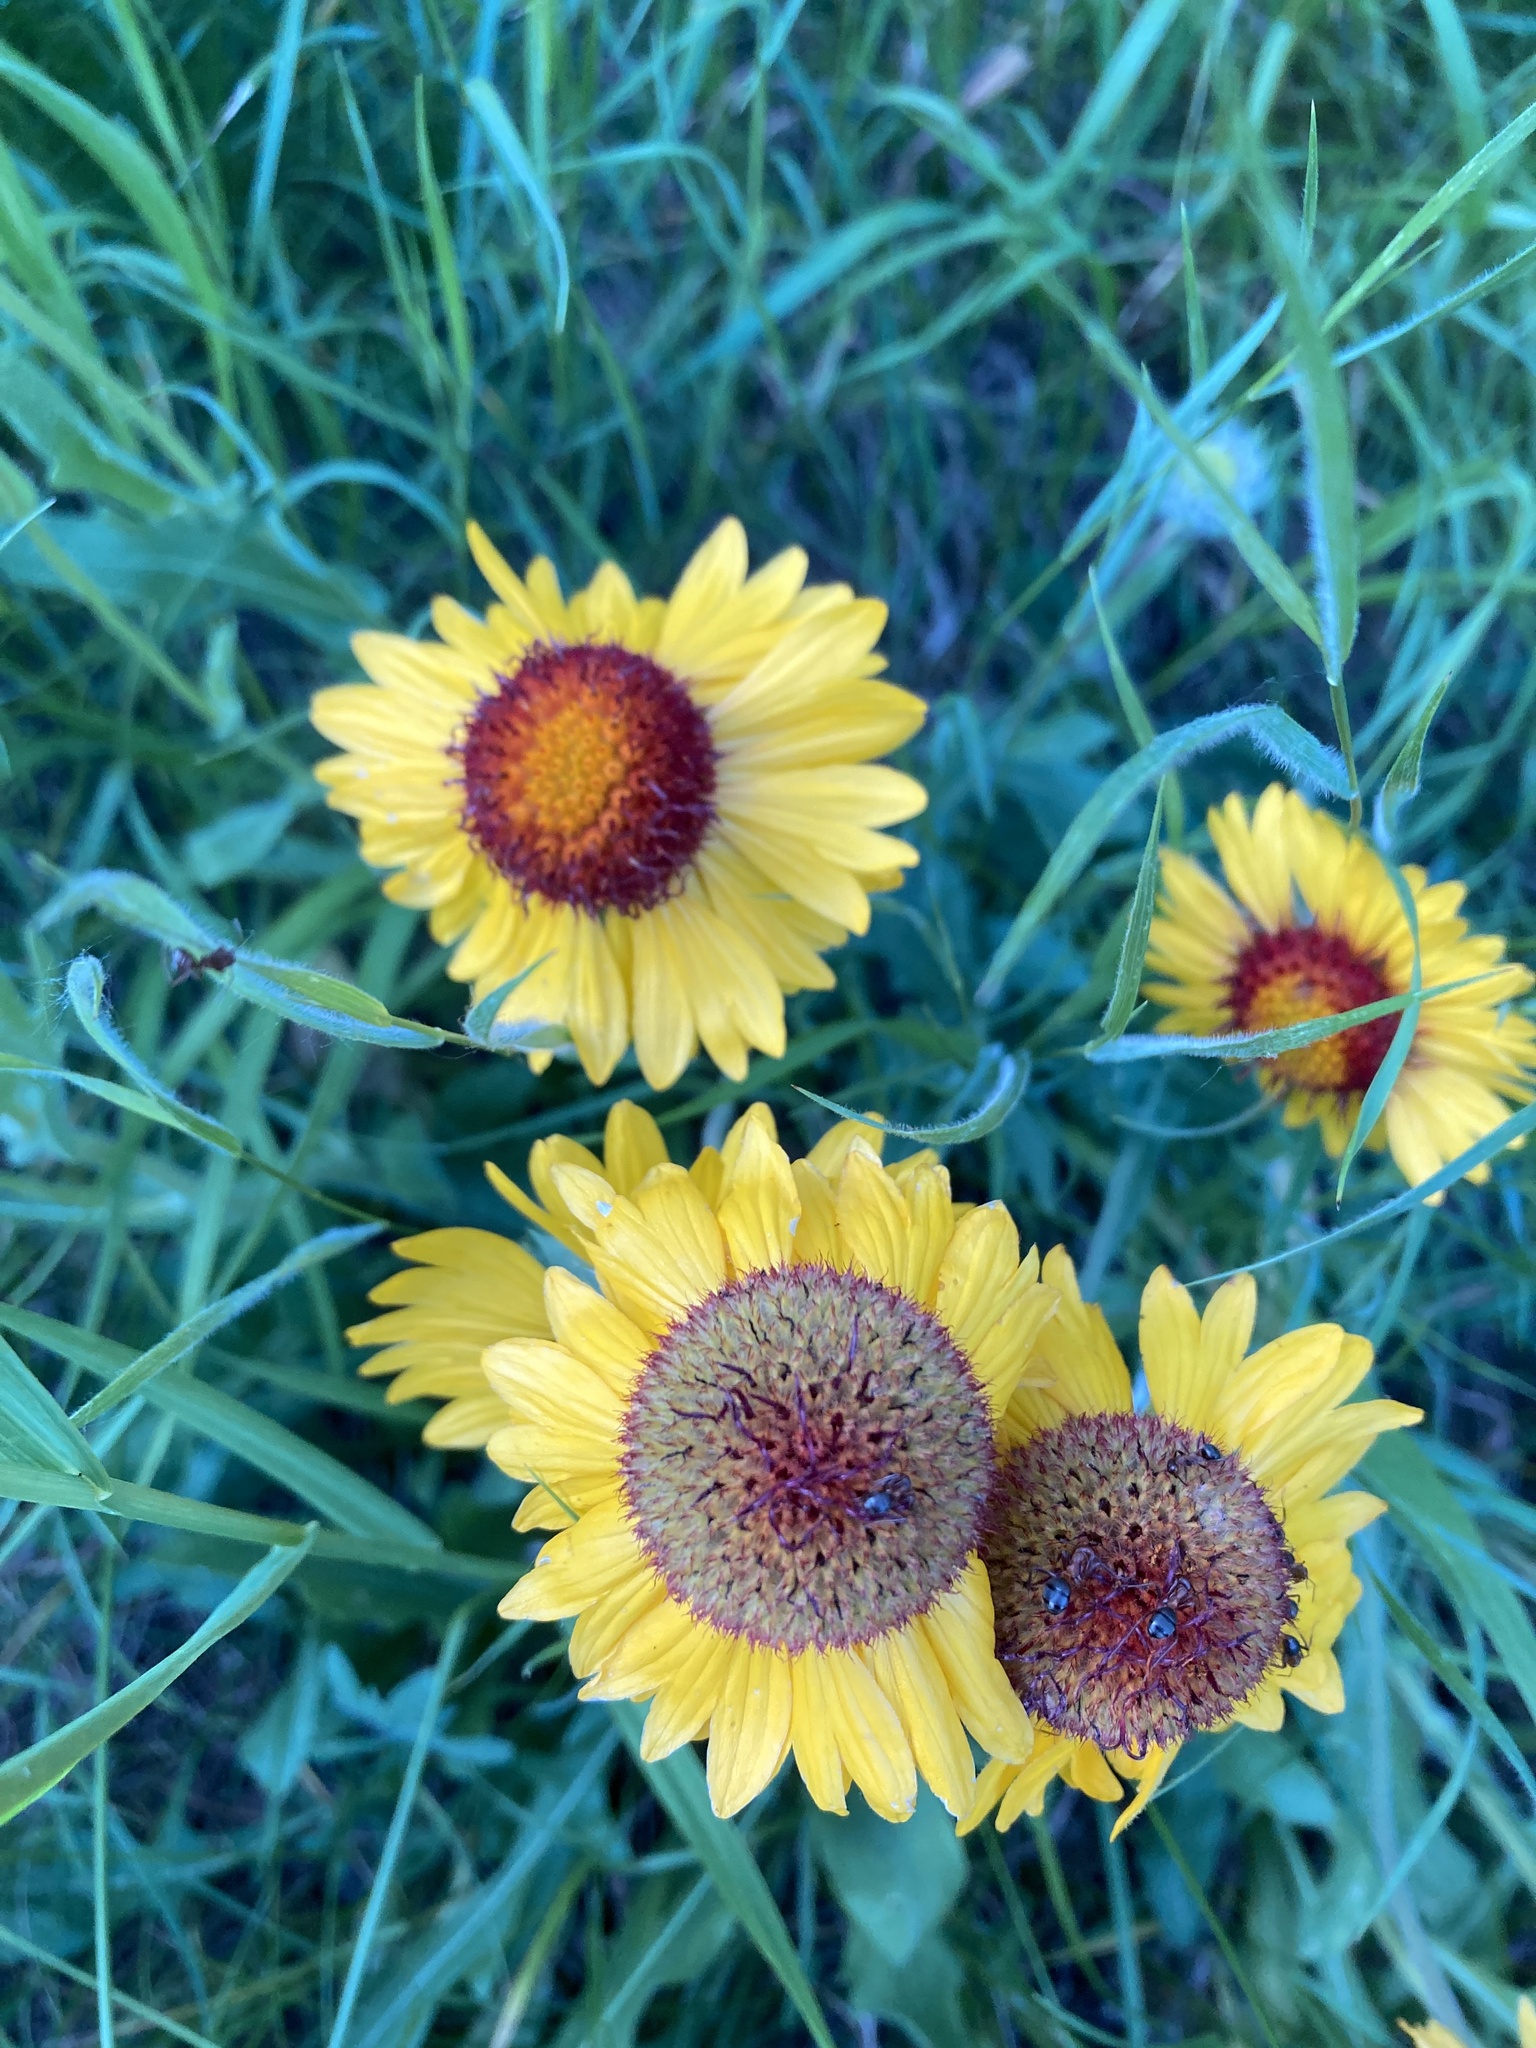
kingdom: Plantae
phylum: Tracheophyta
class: Magnoliopsida
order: Asterales
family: Asteraceae
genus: Gaillardia
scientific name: Gaillardia aristata
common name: Blanket-flower
